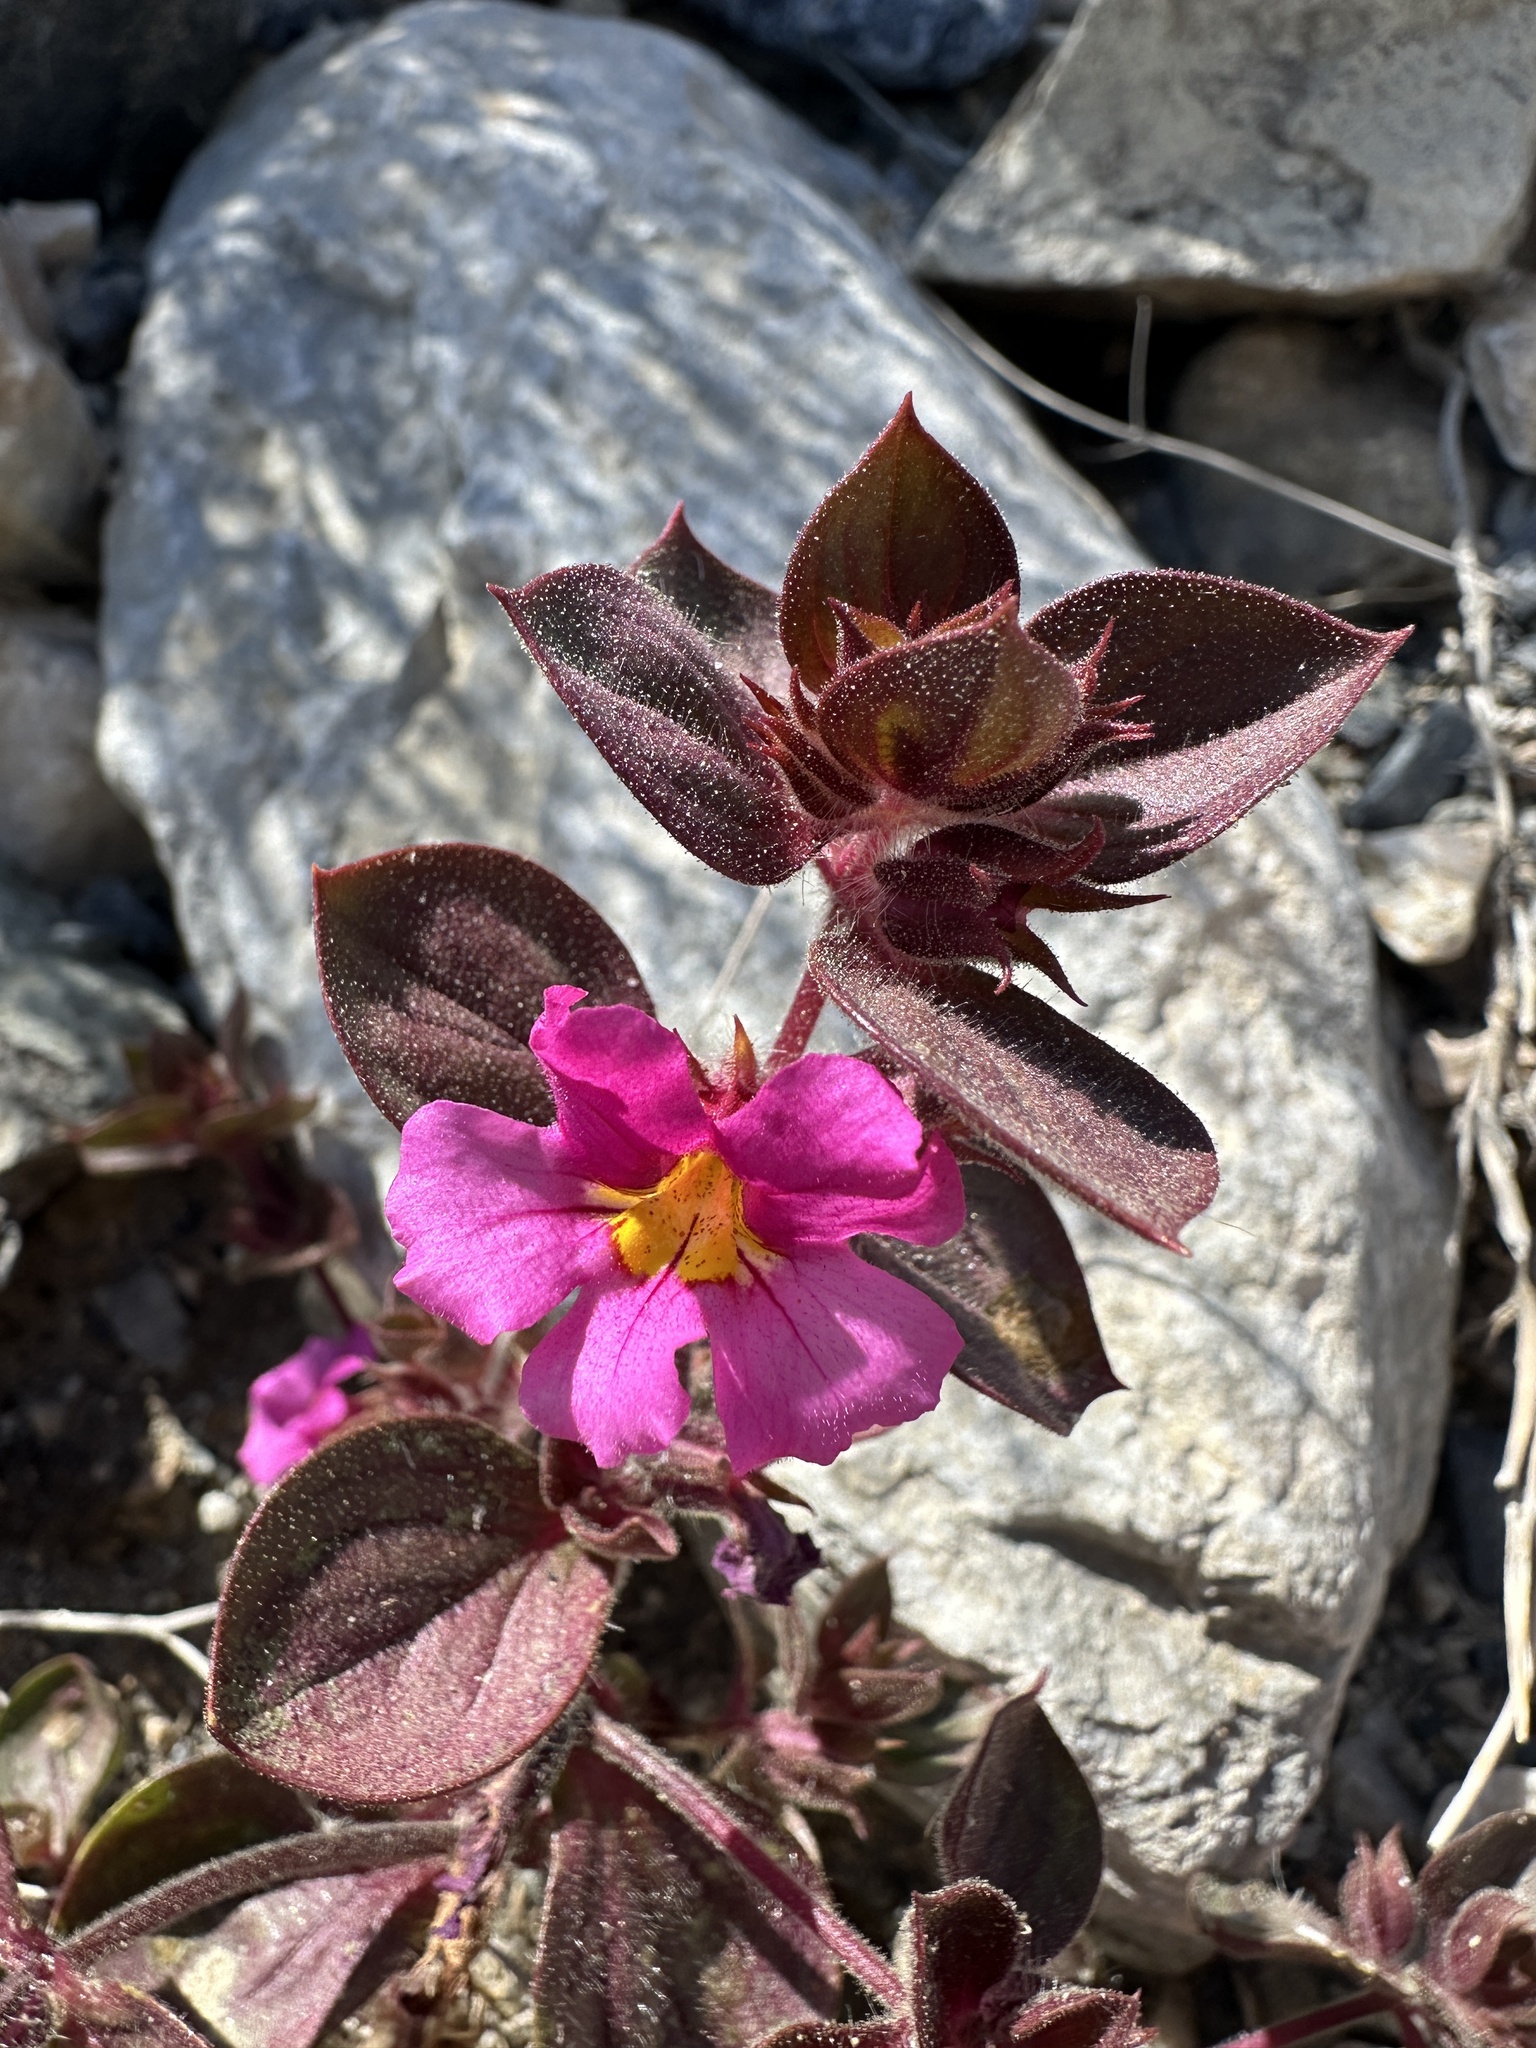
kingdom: Plantae
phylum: Tracheophyta
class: Magnoliopsida
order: Lamiales
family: Phrymaceae
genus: Diplacus
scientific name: Diplacus bigelovii
